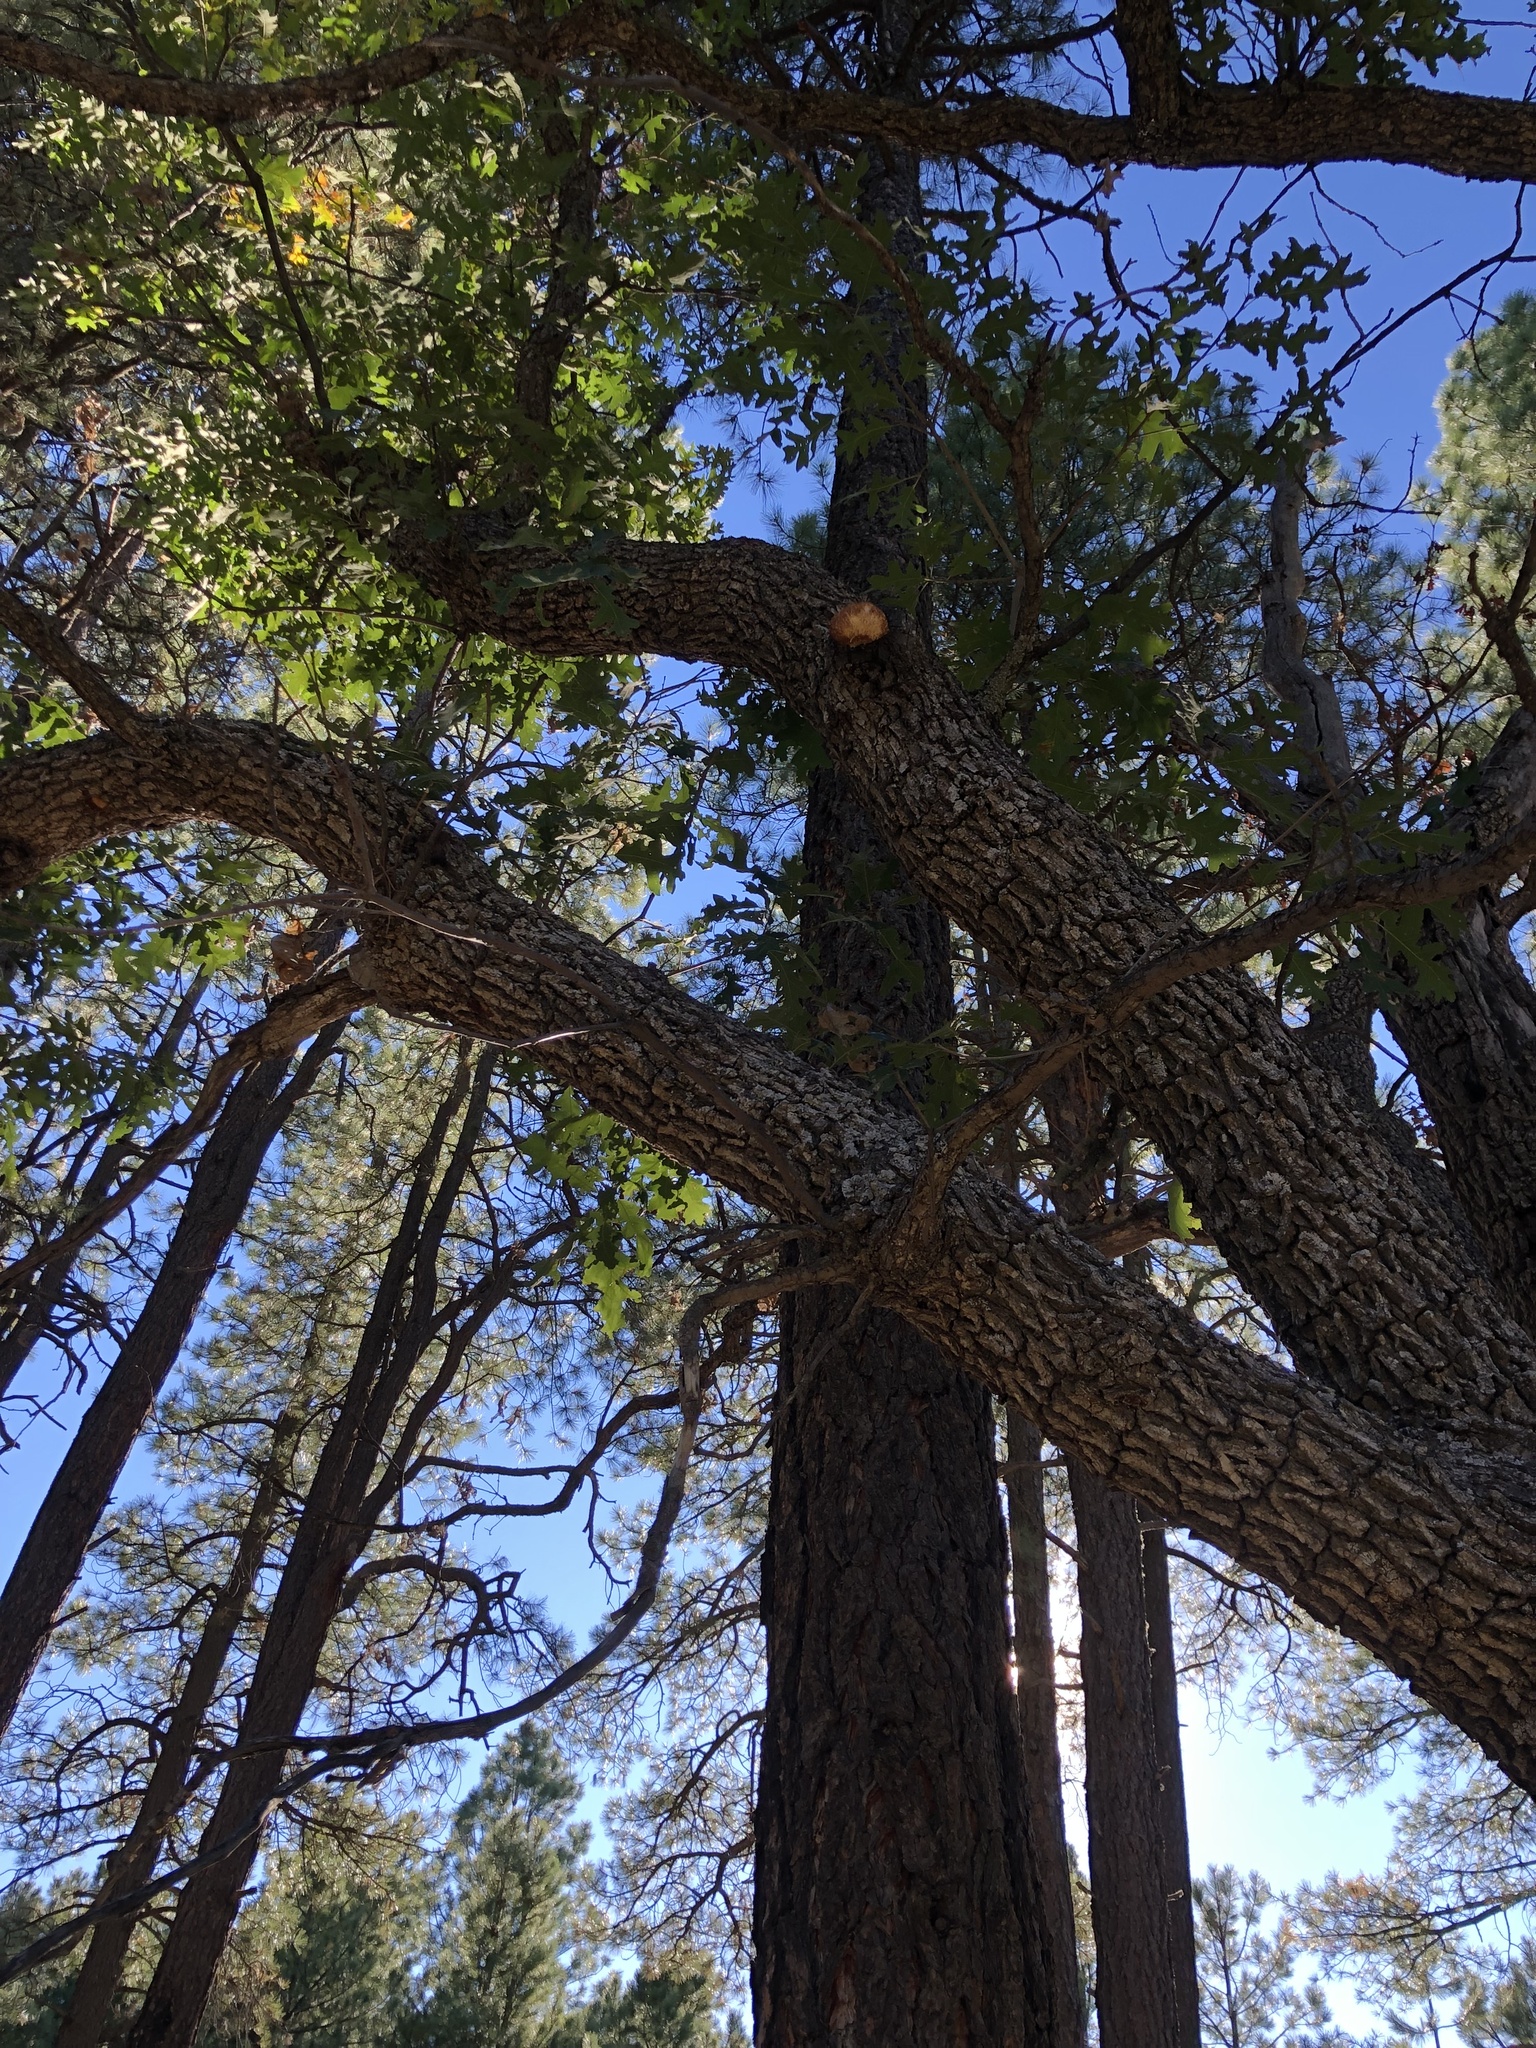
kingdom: Fungi
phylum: Basidiomycota
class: Agaricomycetes
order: Russulales
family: Hericiaceae
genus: Hericium
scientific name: Hericium erinaceus
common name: Bearded tooth
